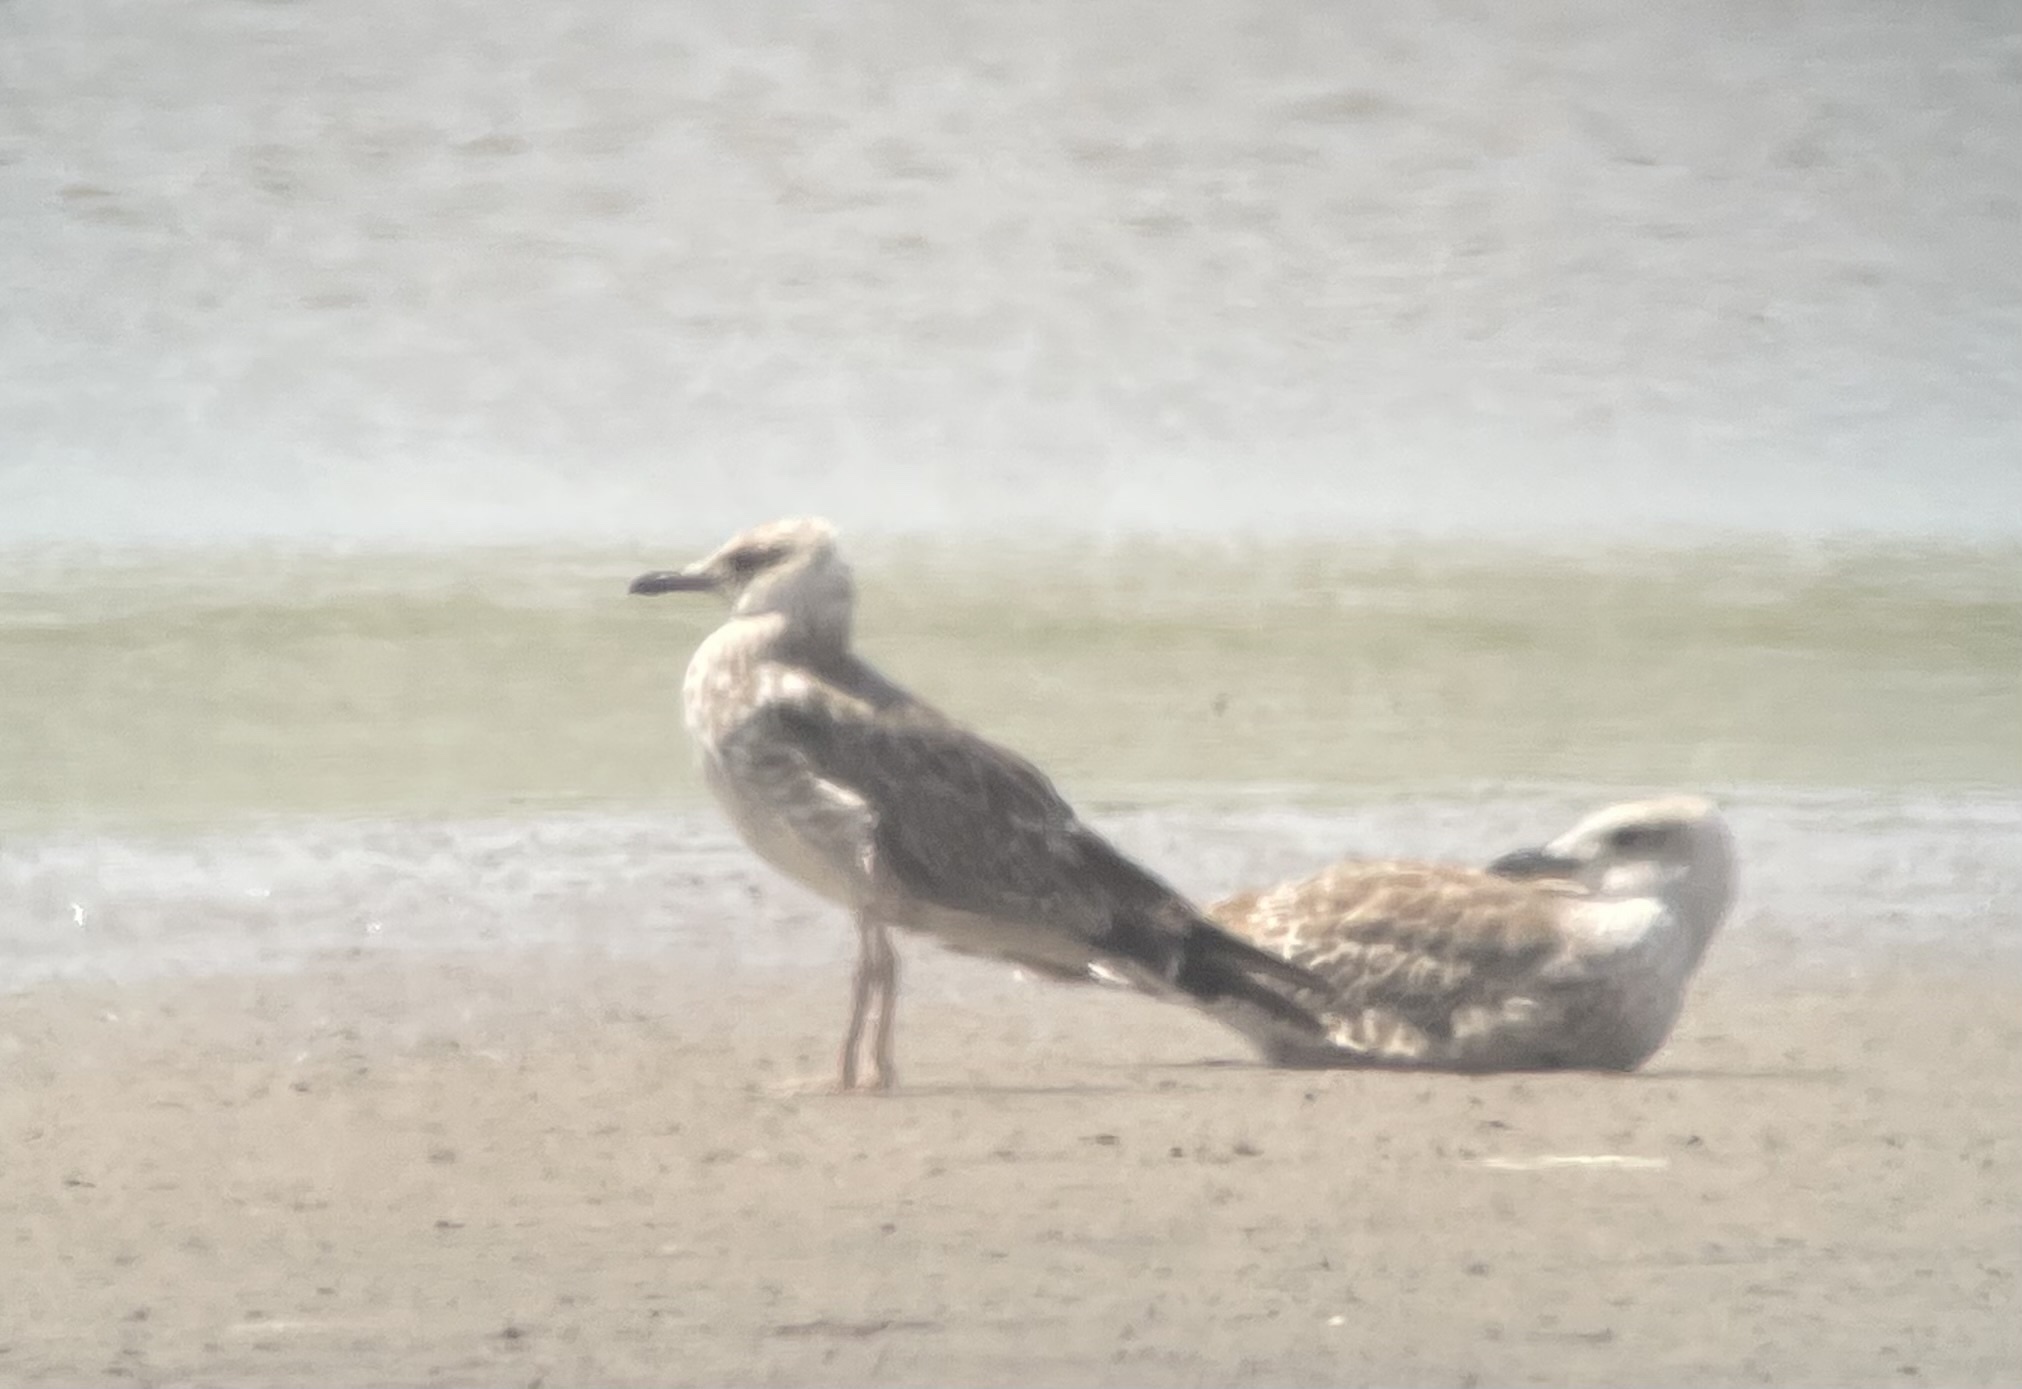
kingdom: Animalia
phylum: Chordata
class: Aves
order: Charadriiformes
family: Laridae
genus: Larus
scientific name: Larus cachinnans
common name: Caspian gull
